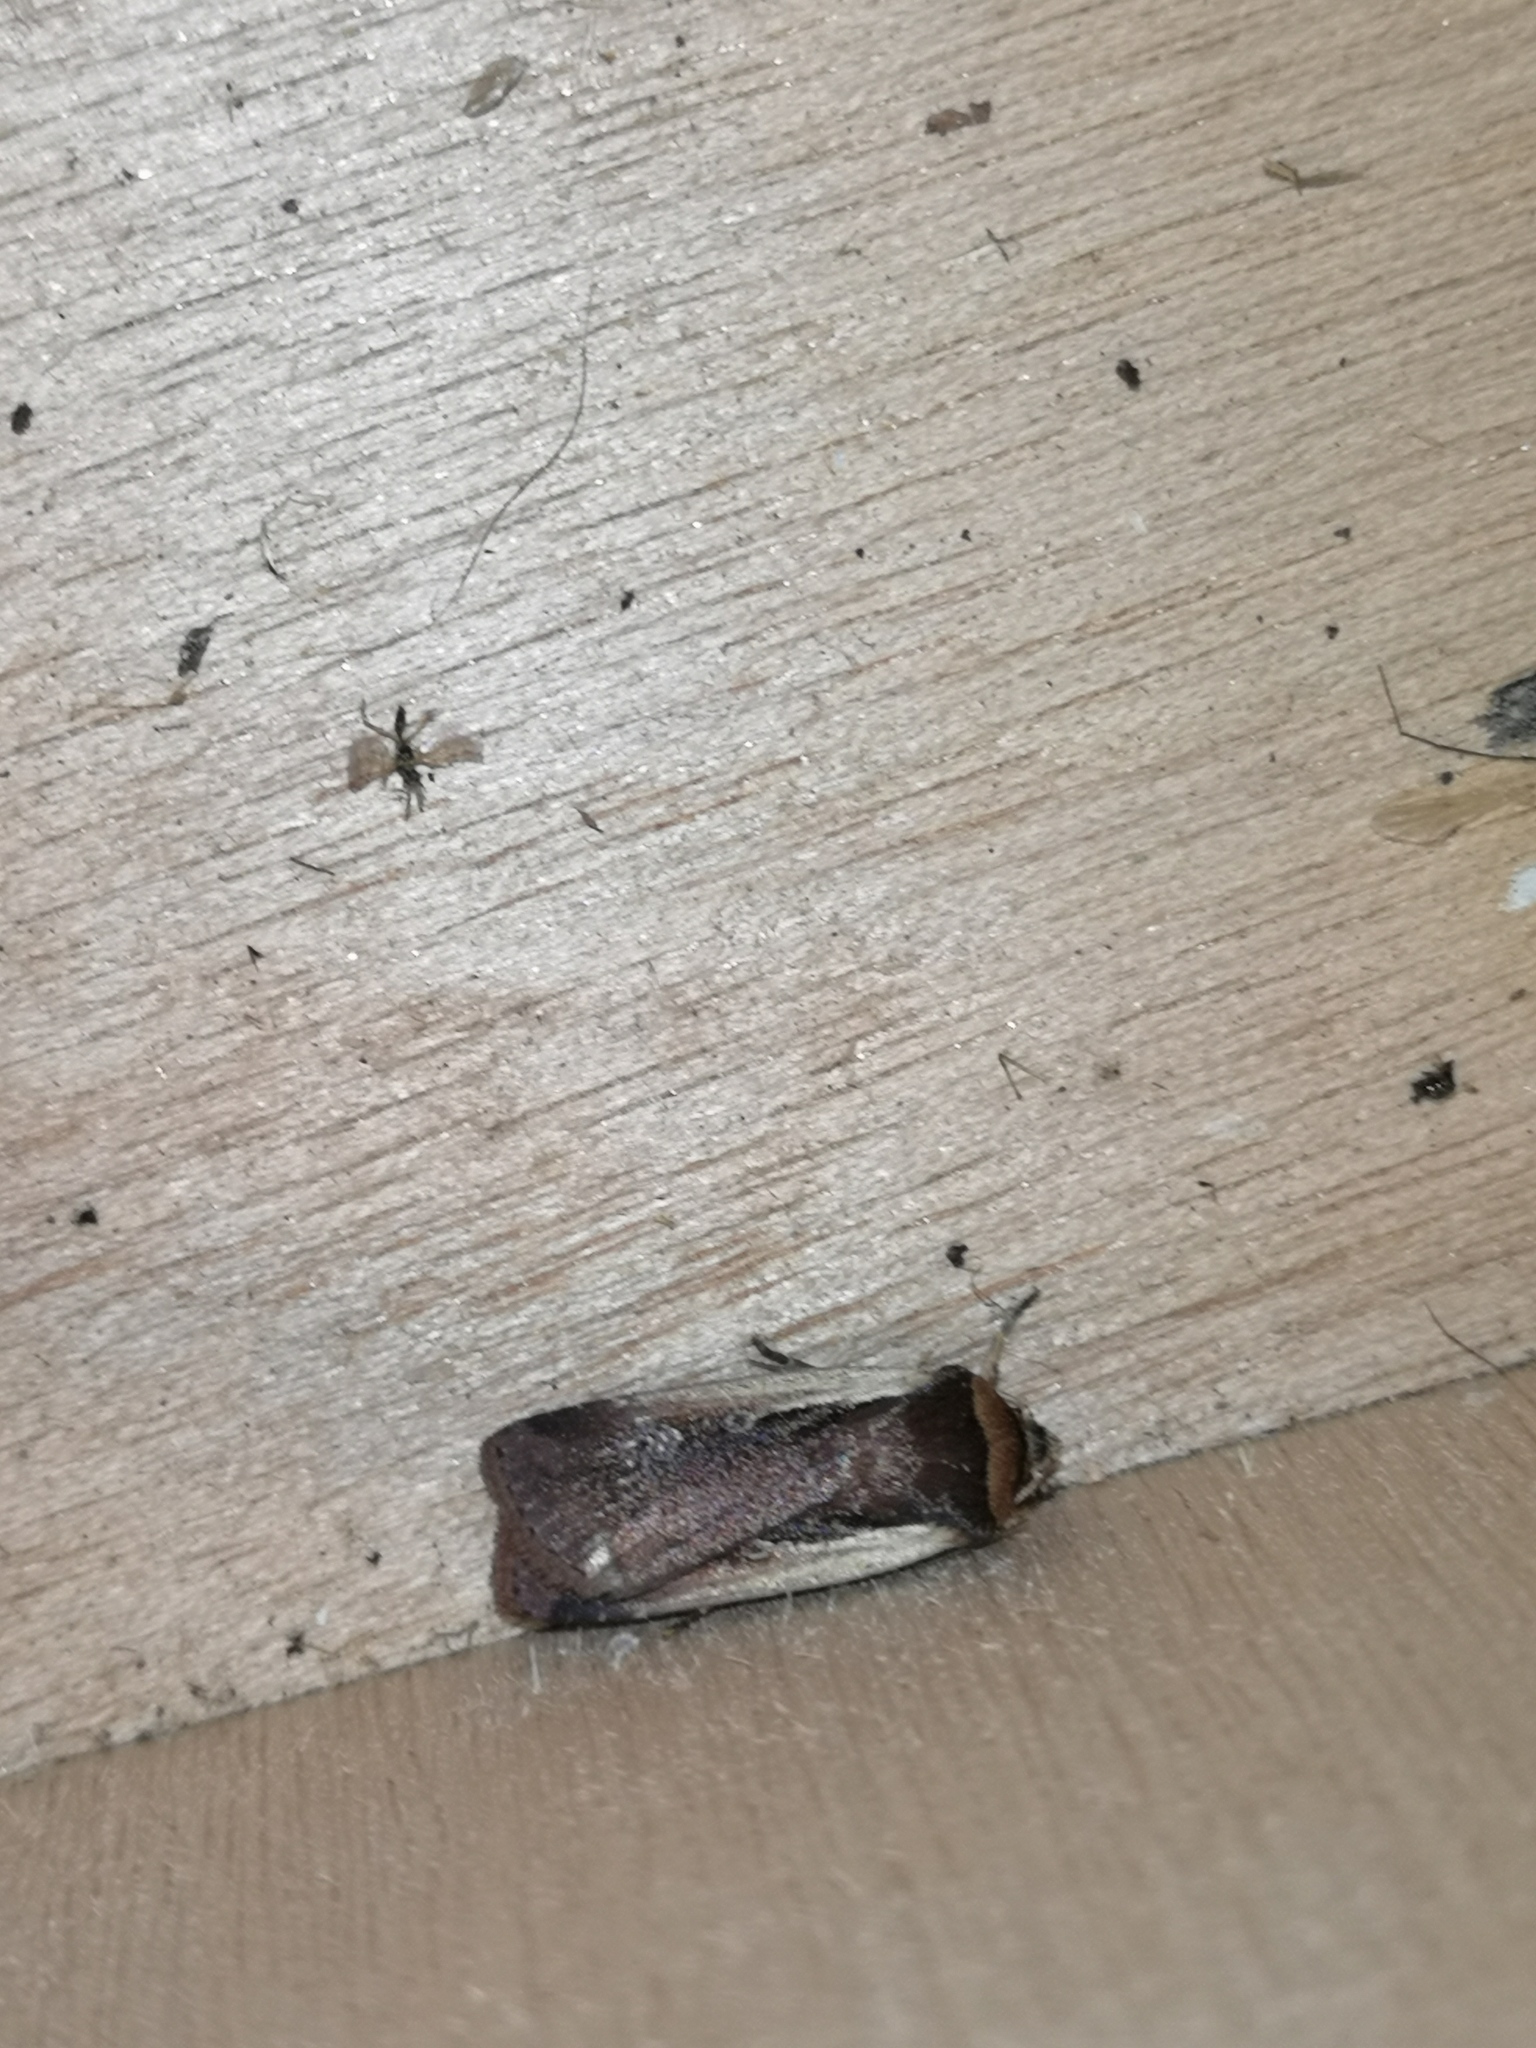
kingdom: Animalia
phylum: Arthropoda
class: Insecta
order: Lepidoptera
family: Noctuidae
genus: Ochropleura
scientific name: Ochropleura plecta
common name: Flame shoulder
